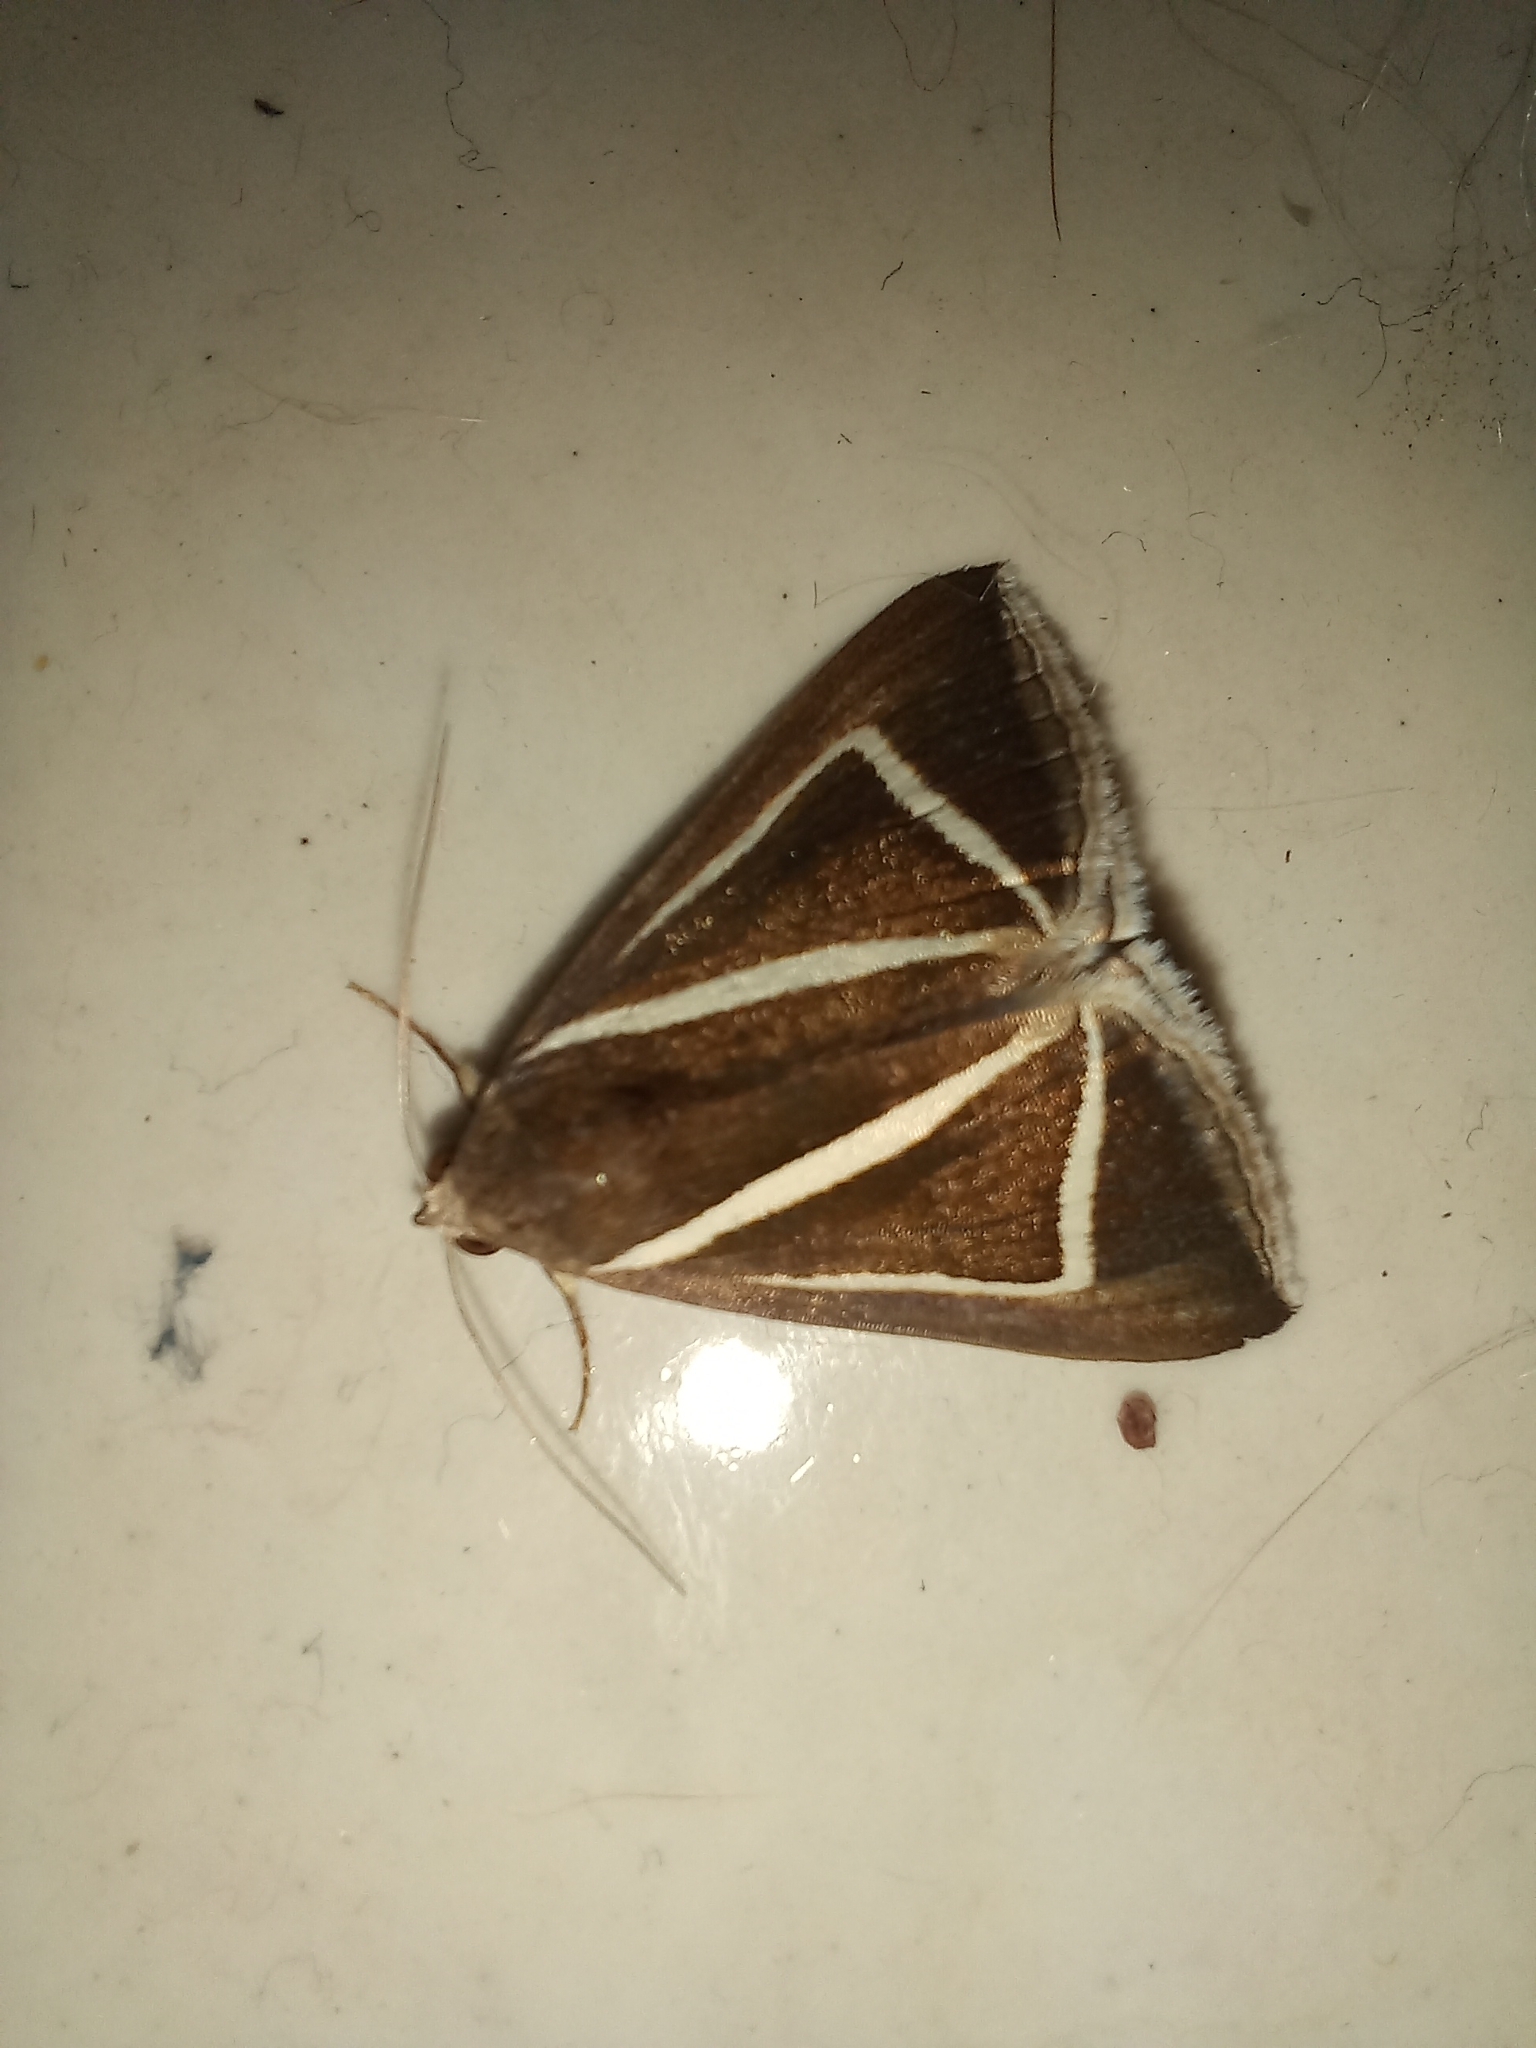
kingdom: Animalia
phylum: Arthropoda
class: Insecta
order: Lepidoptera
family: Erebidae
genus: Chalciope
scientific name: Chalciope delta
